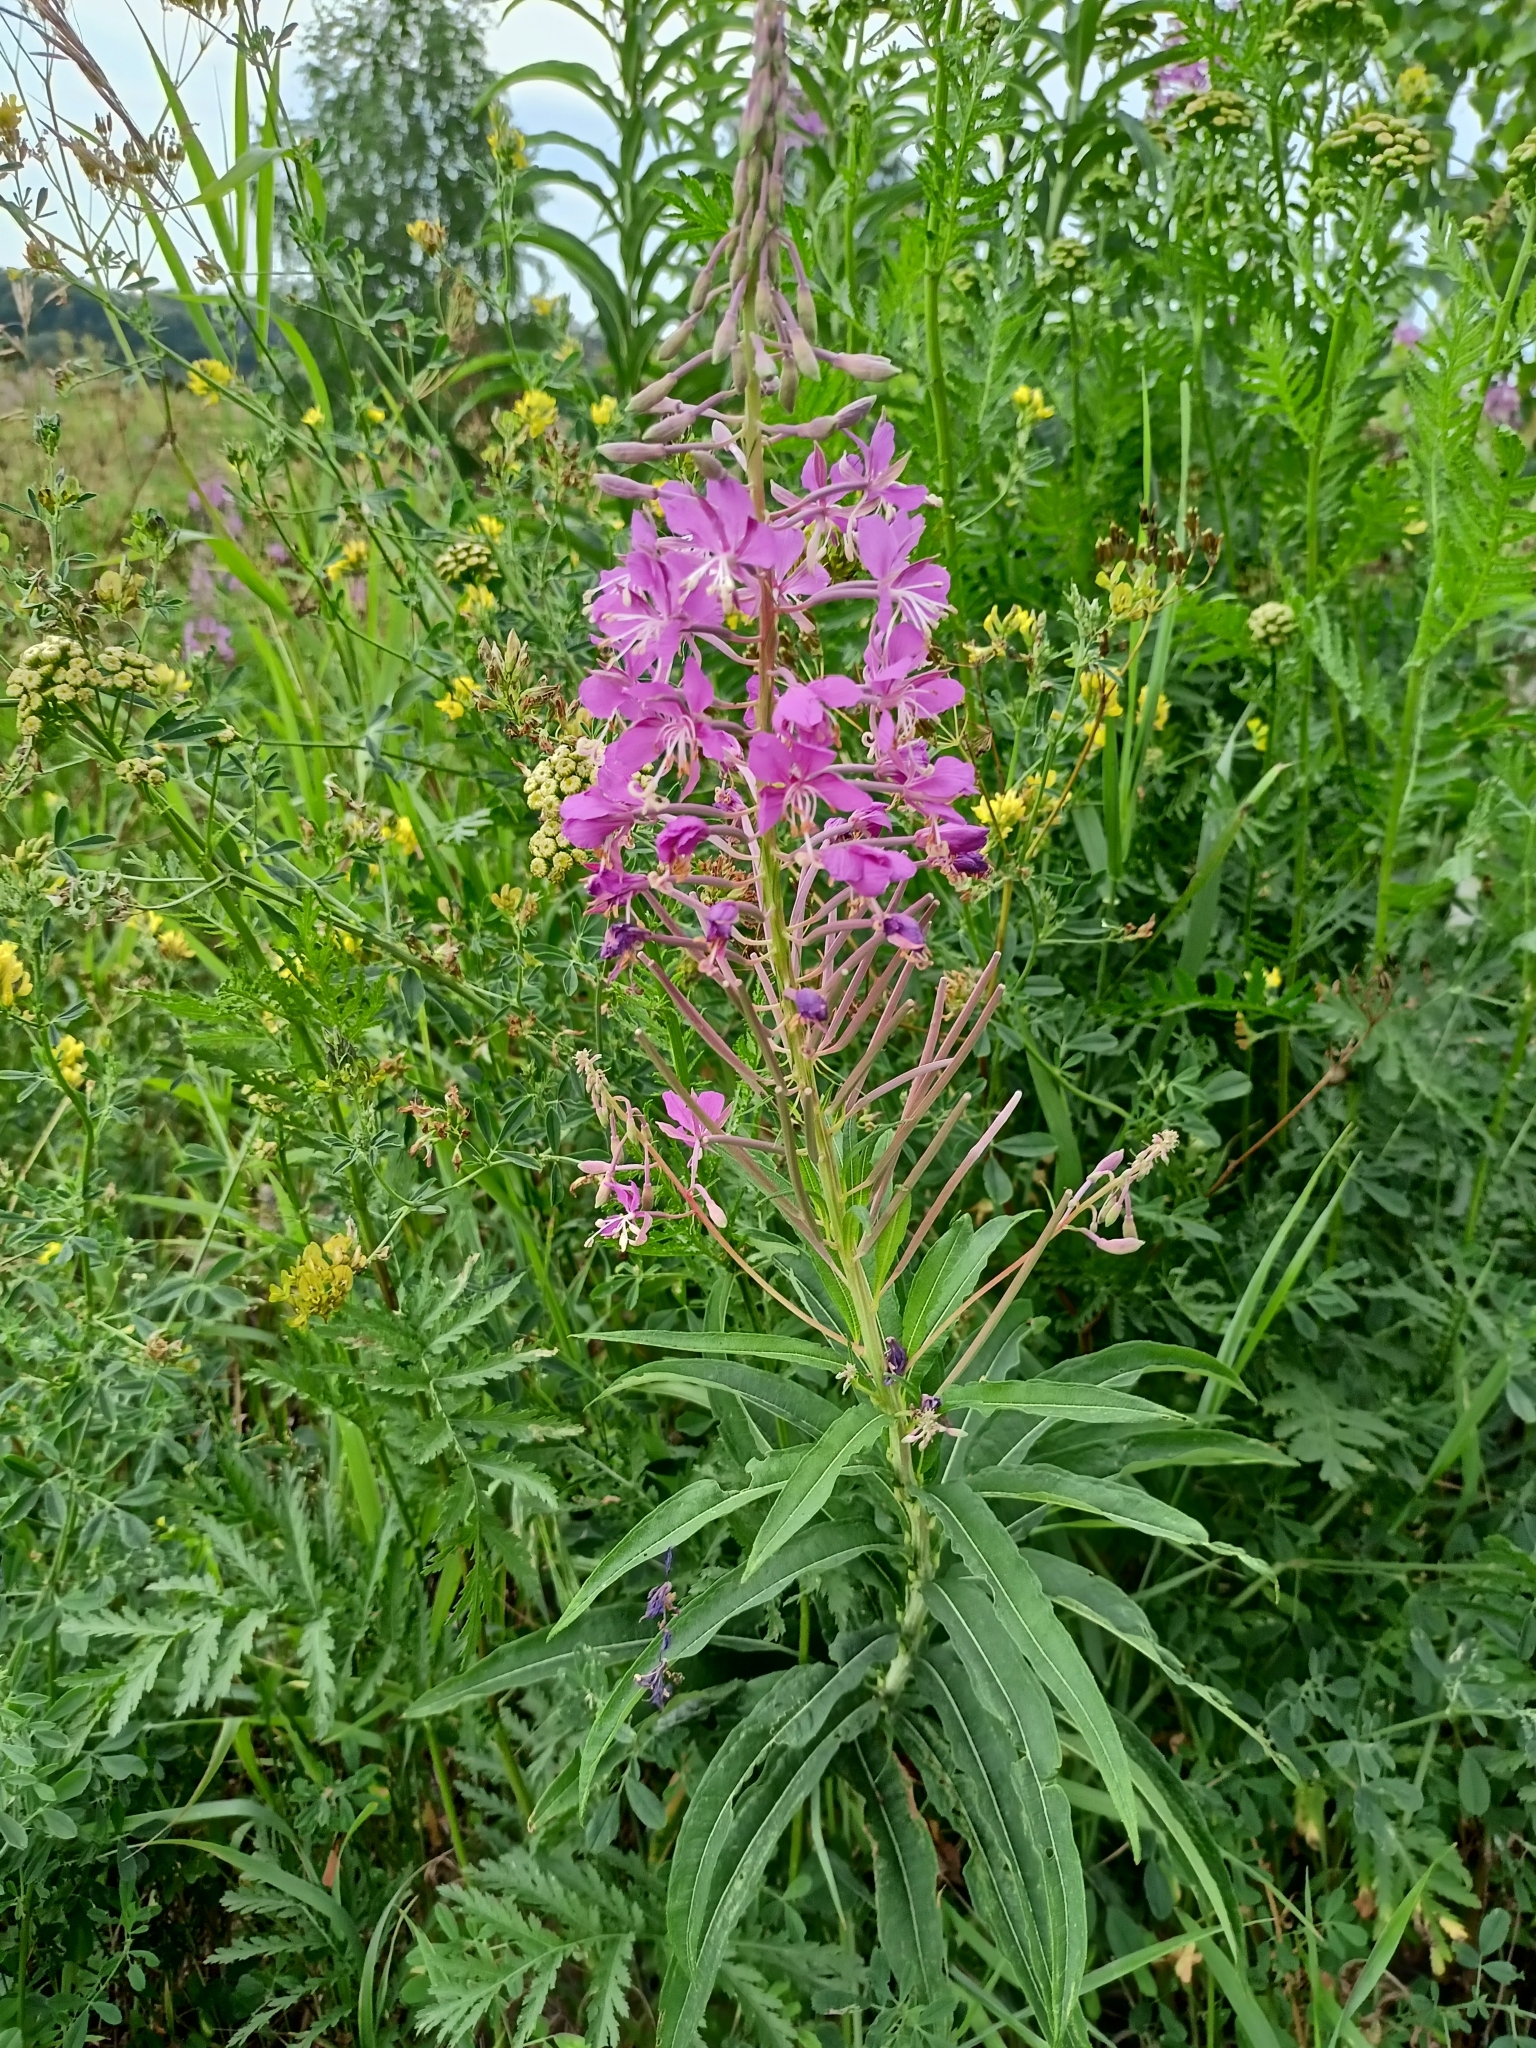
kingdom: Plantae
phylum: Tracheophyta
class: Magnoliopsida
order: Myrtales
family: Onagraceae
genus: Chamaenerion
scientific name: Chamaenerion angustifolium
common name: Fireweed
